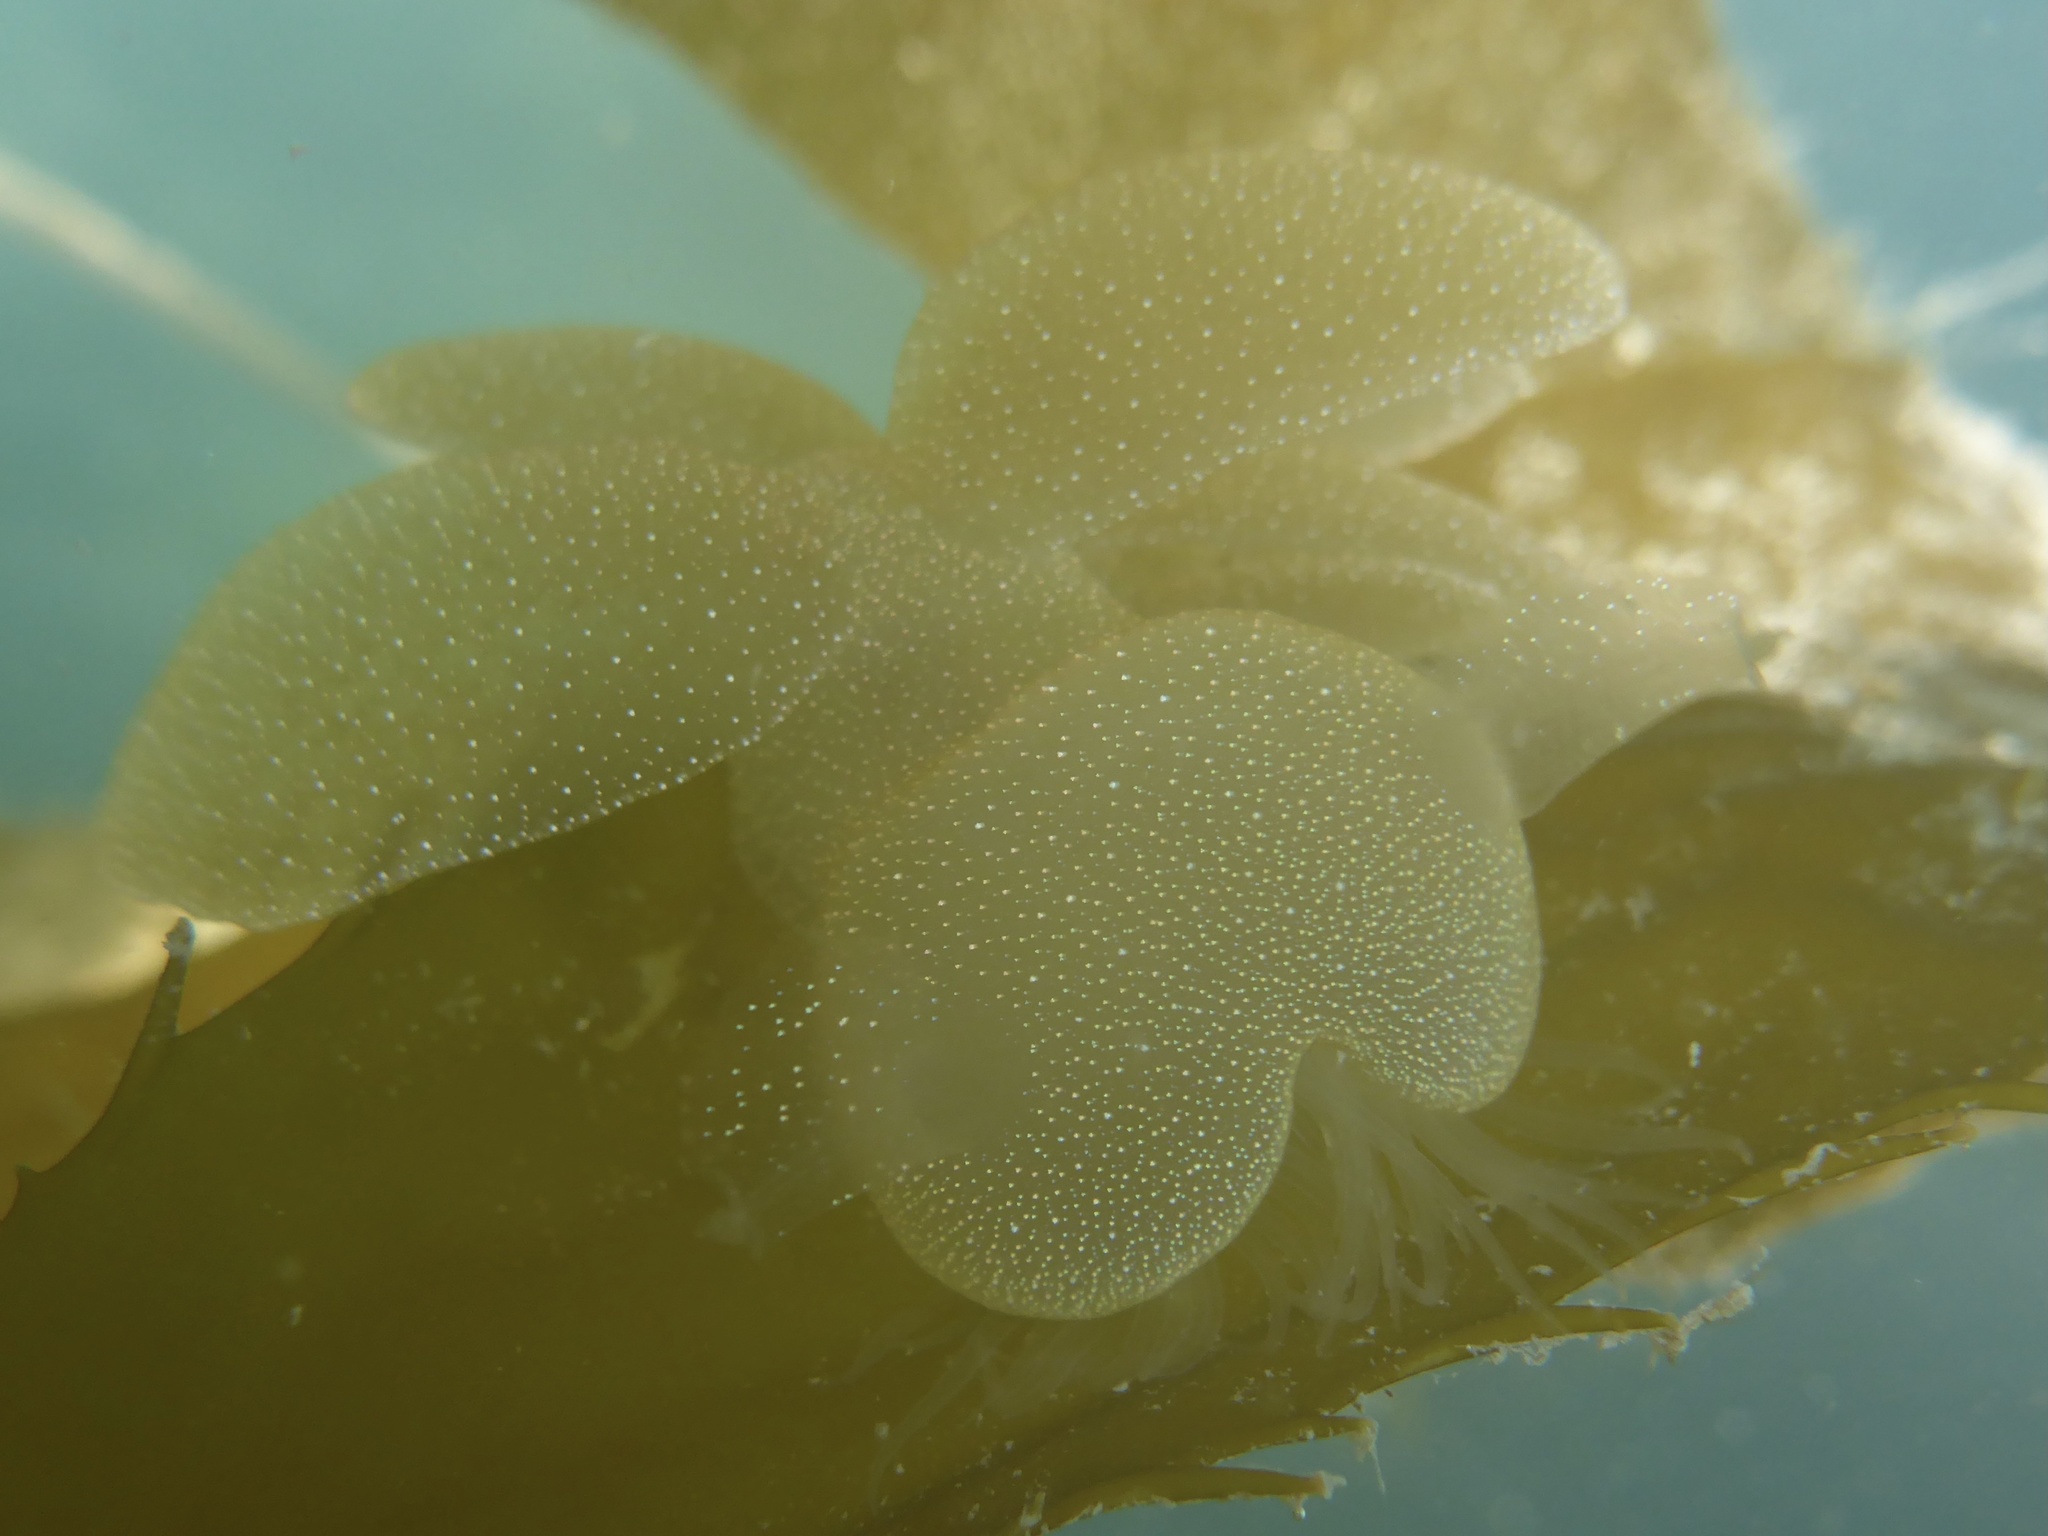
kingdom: Animalia
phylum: Mollusca
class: Gastropoda
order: Nudibranchia
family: Tethydidae
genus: Melibe
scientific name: Melibe leonina
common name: Lion nudibranch
